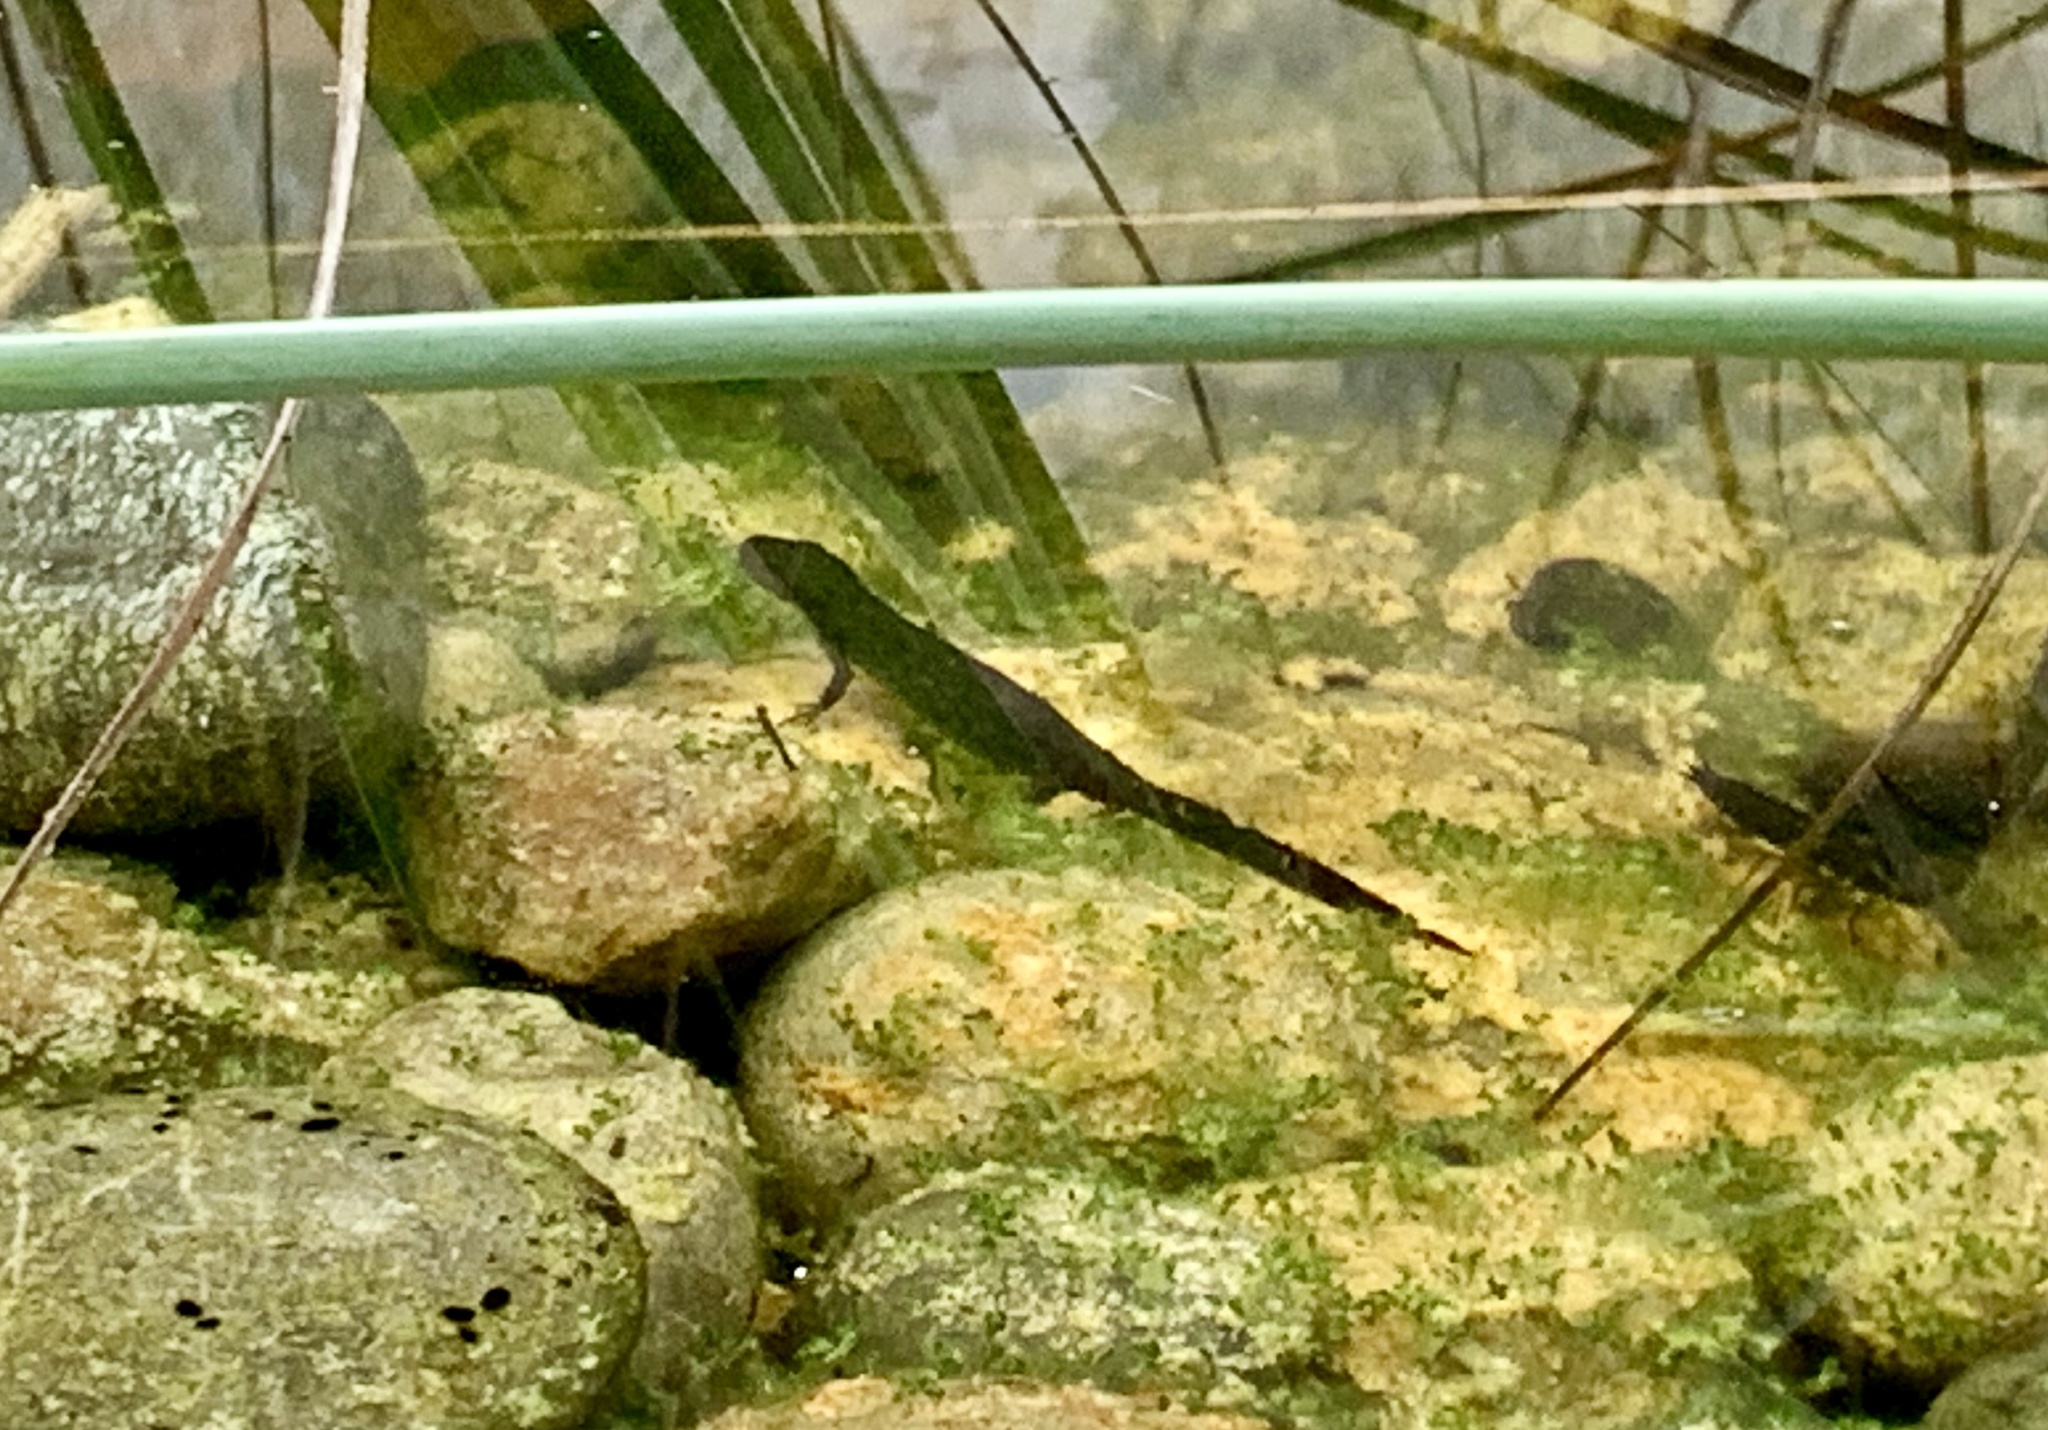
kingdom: Animalia
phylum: Chordata
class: Amphibia
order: Caudata
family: Salamandridae
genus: Ichthyosaura
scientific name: Ichthyosaura alpestris
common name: Alpine newt
